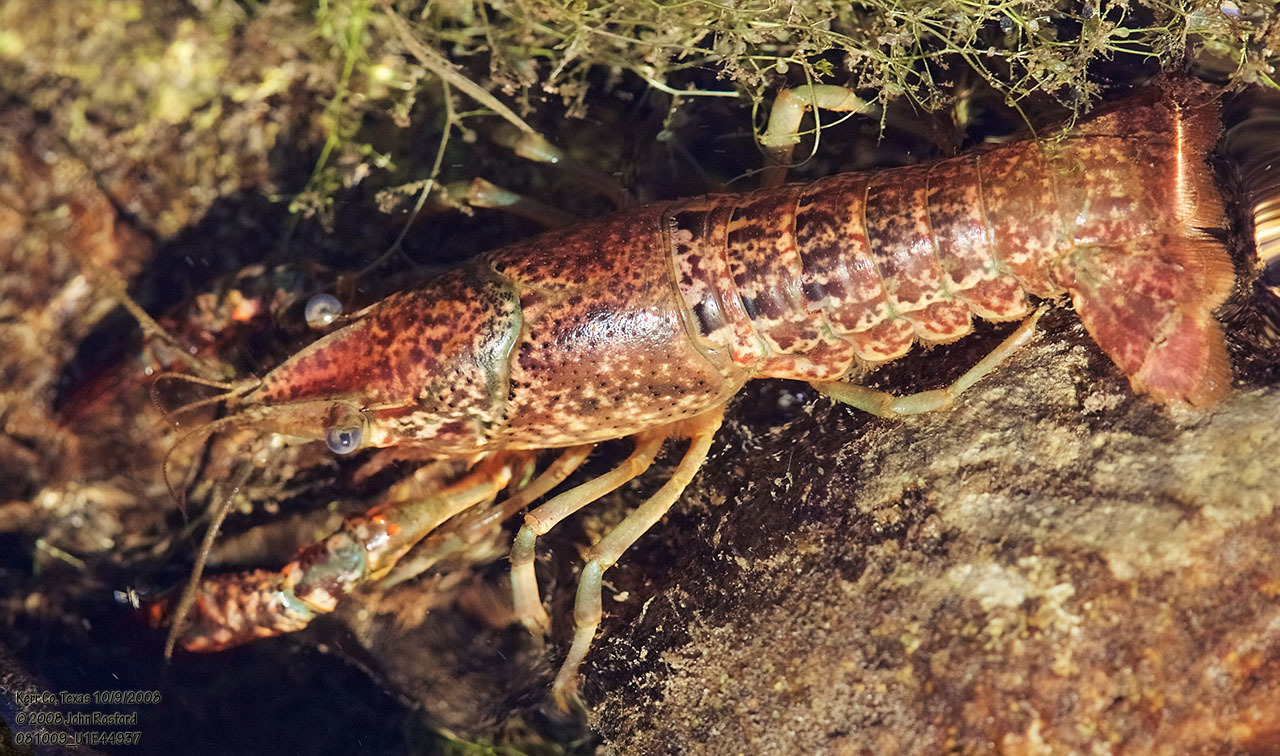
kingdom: Animalia
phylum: Arthropoda
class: Malacostraca
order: Decapoda
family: Cambaridae
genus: Procambarus
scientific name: Procambarus clarkii
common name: Red swamp crayfish
